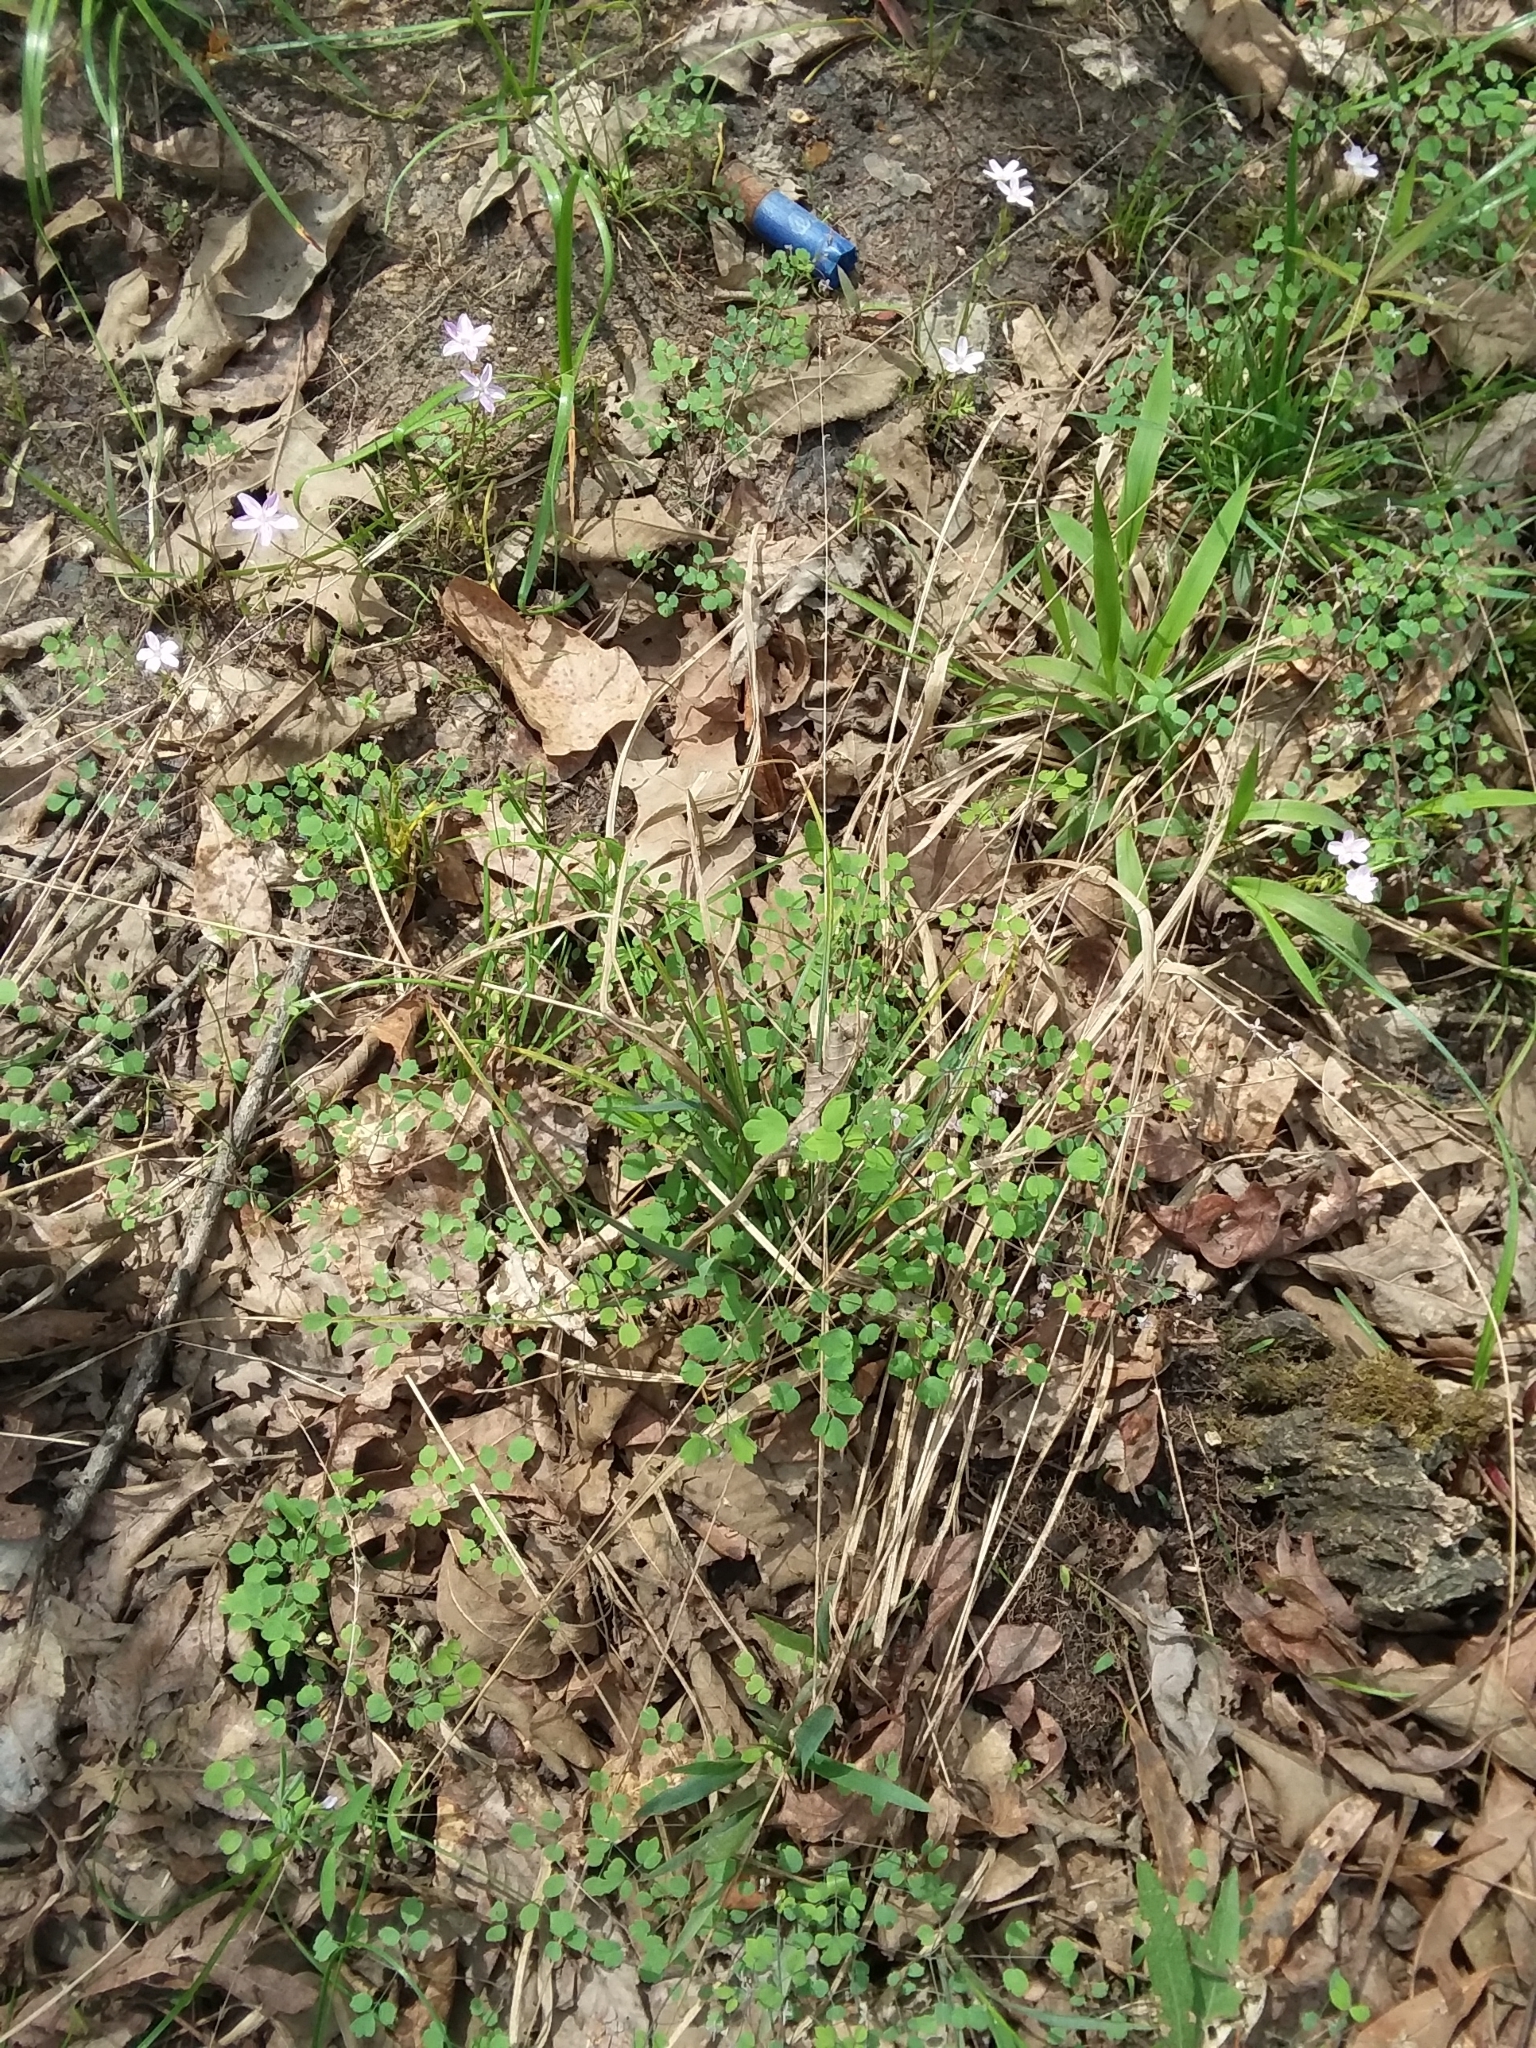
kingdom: Plantae
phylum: Tracheophyta
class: Magnoliopsida
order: Ranunculales
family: Ranunculaceae
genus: Thalictrum
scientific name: Thalictrum debile
